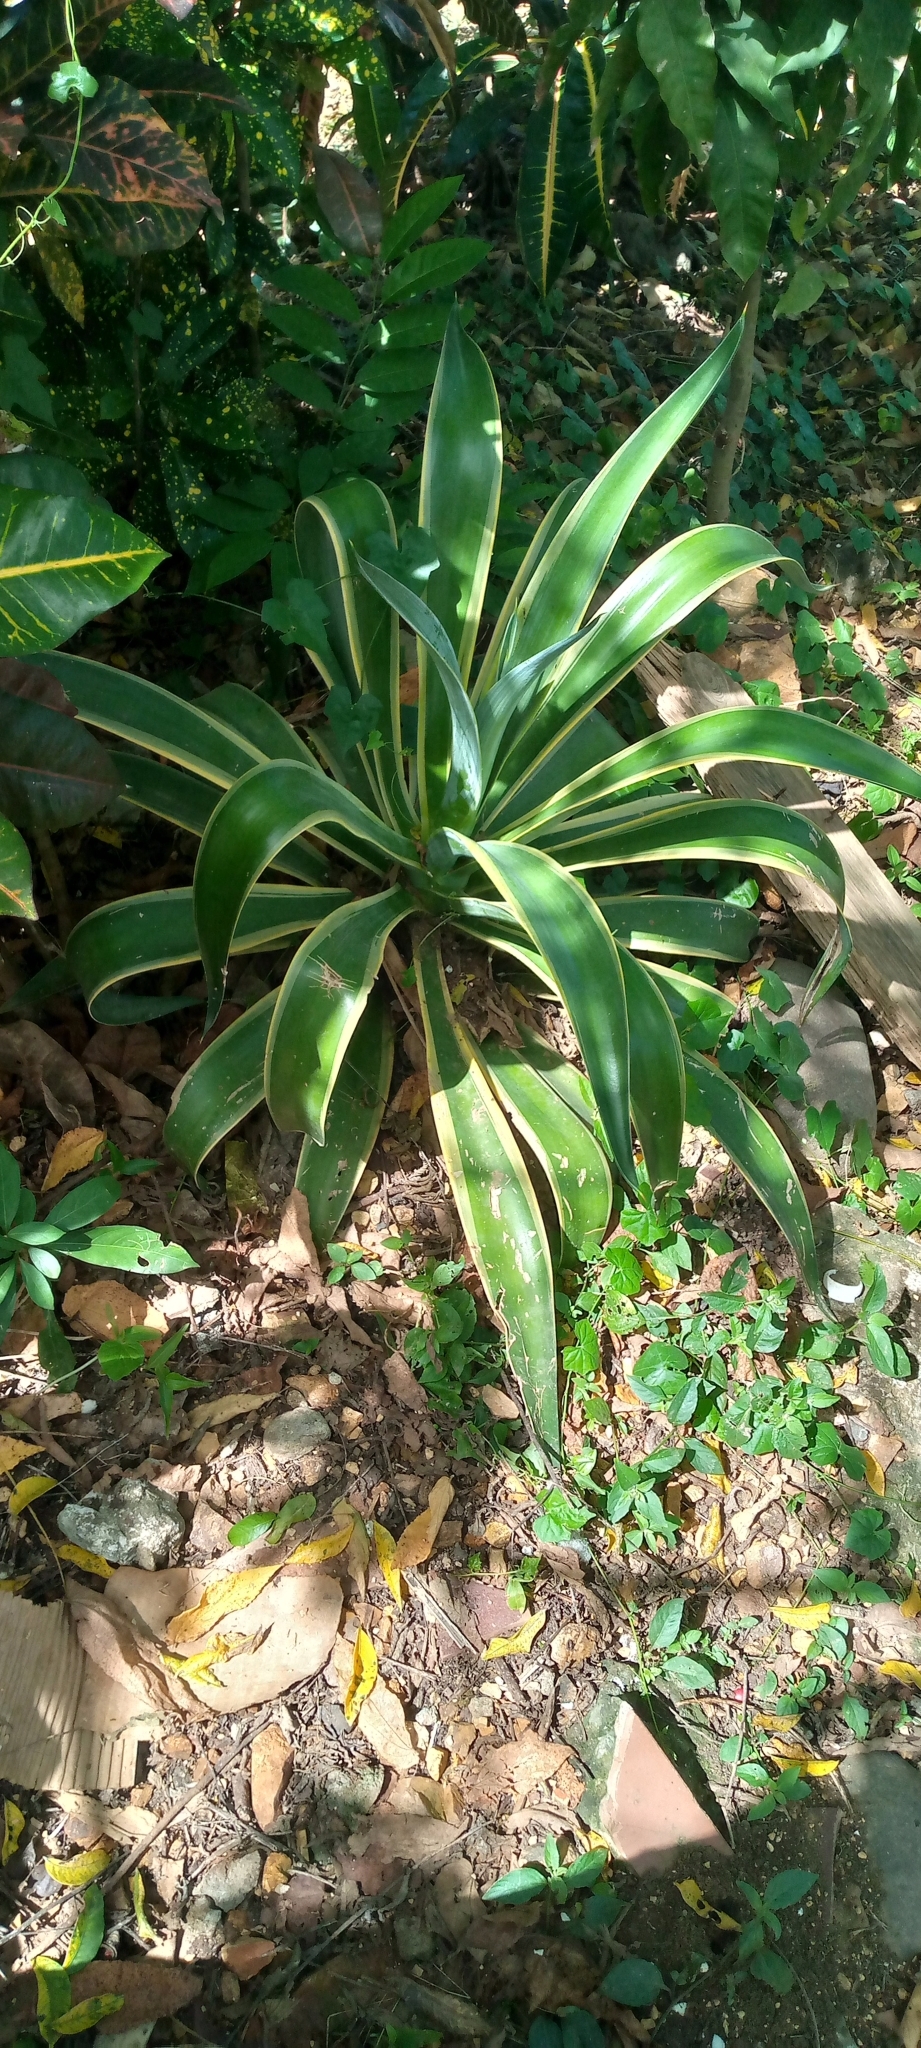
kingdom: Plantae
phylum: Tracheophyta
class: Liliopsida
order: Asparagales
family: Asparagaceae
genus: Agave
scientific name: Agave angustifolia
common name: Mescal agave
